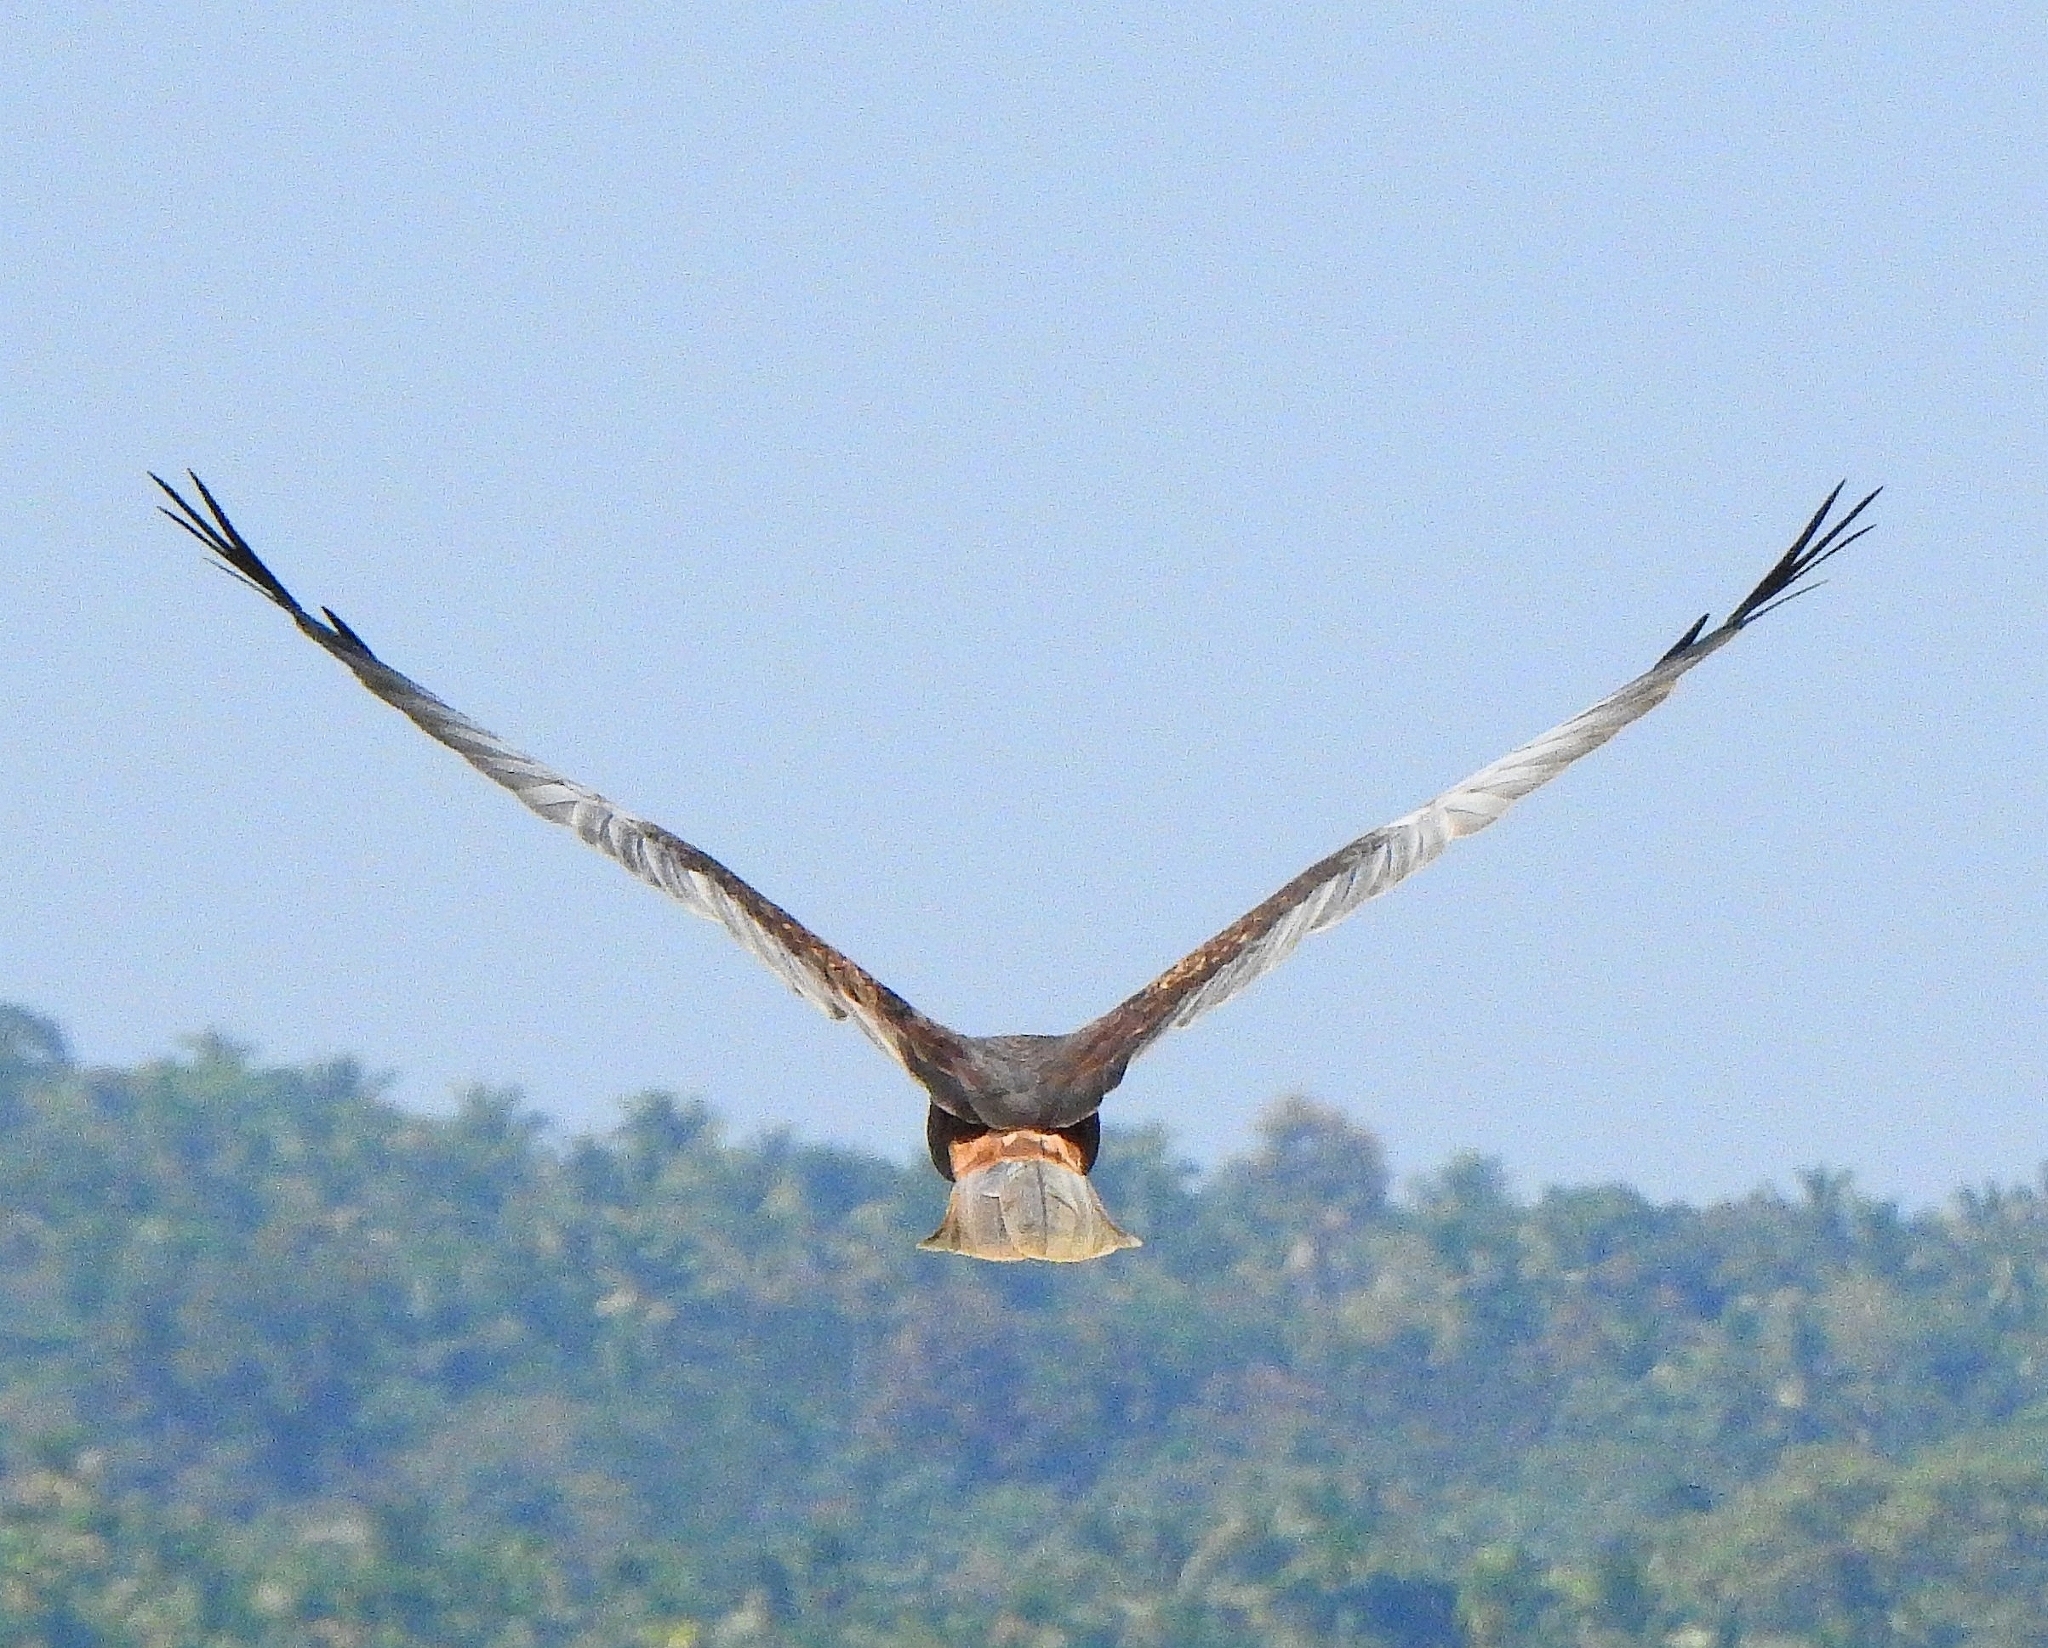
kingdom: Animalia
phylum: Chordata
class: Aves
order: Accipitriformes
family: Accipitridae
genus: Circus
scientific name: Circus aeruginosus
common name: Western marsh harrier
